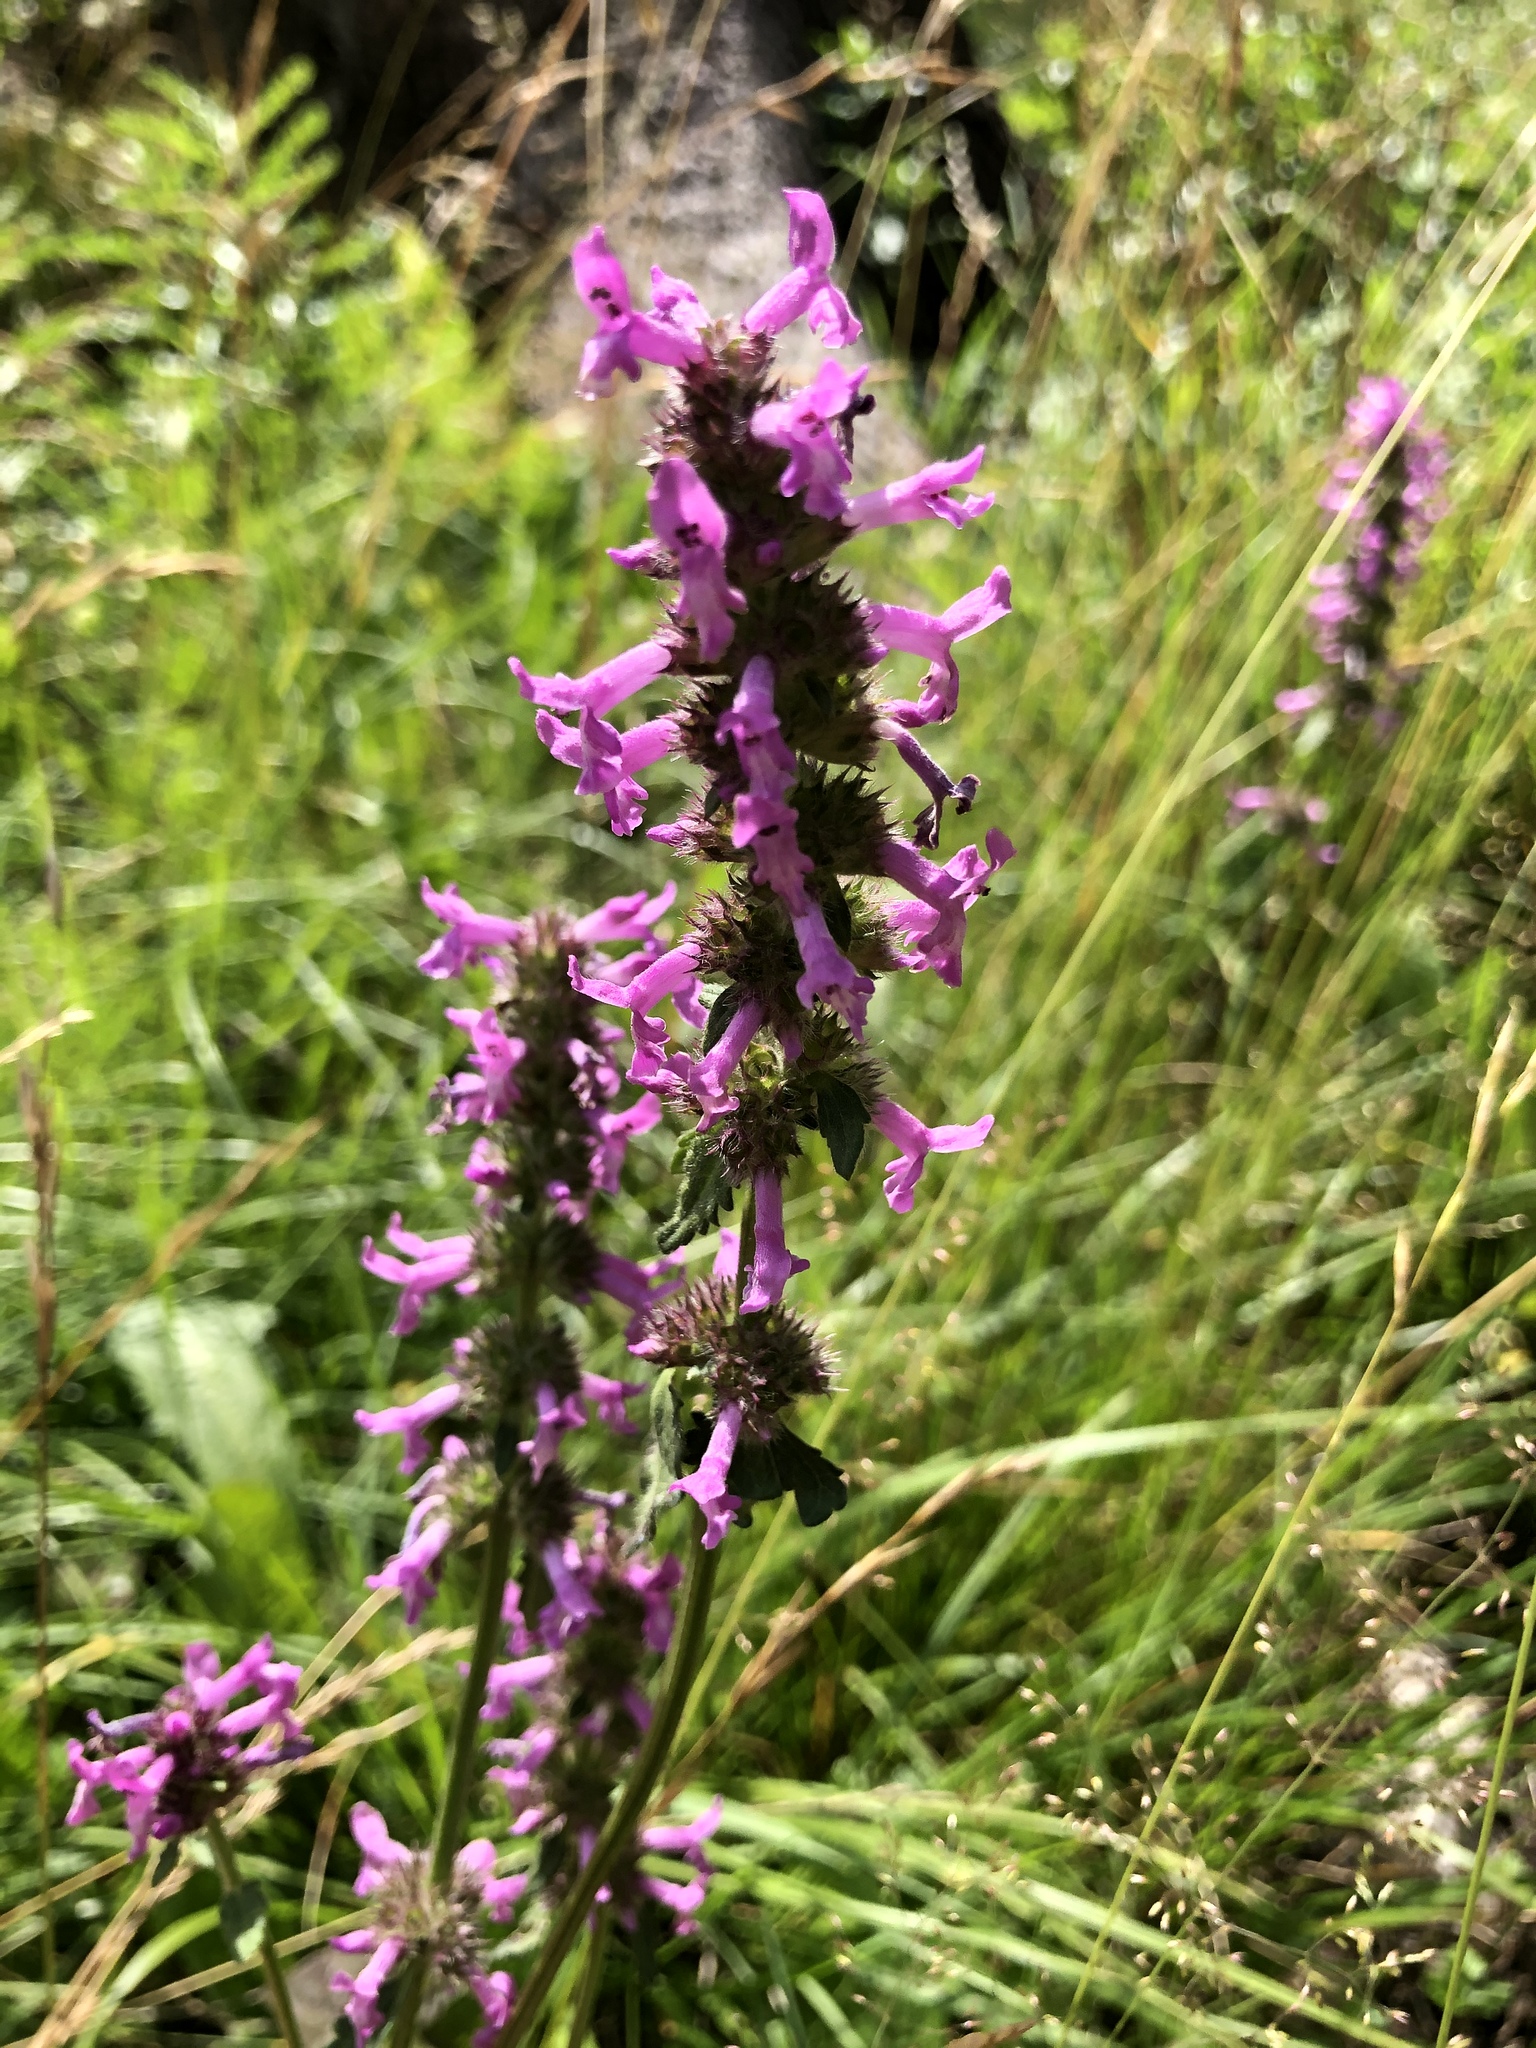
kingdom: Plantae
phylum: Tracheophyta
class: Magnoliopsida
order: Lamiales
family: Lamiaceae
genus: Betonica
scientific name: Betonica officinalis
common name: Bishop's-wort
